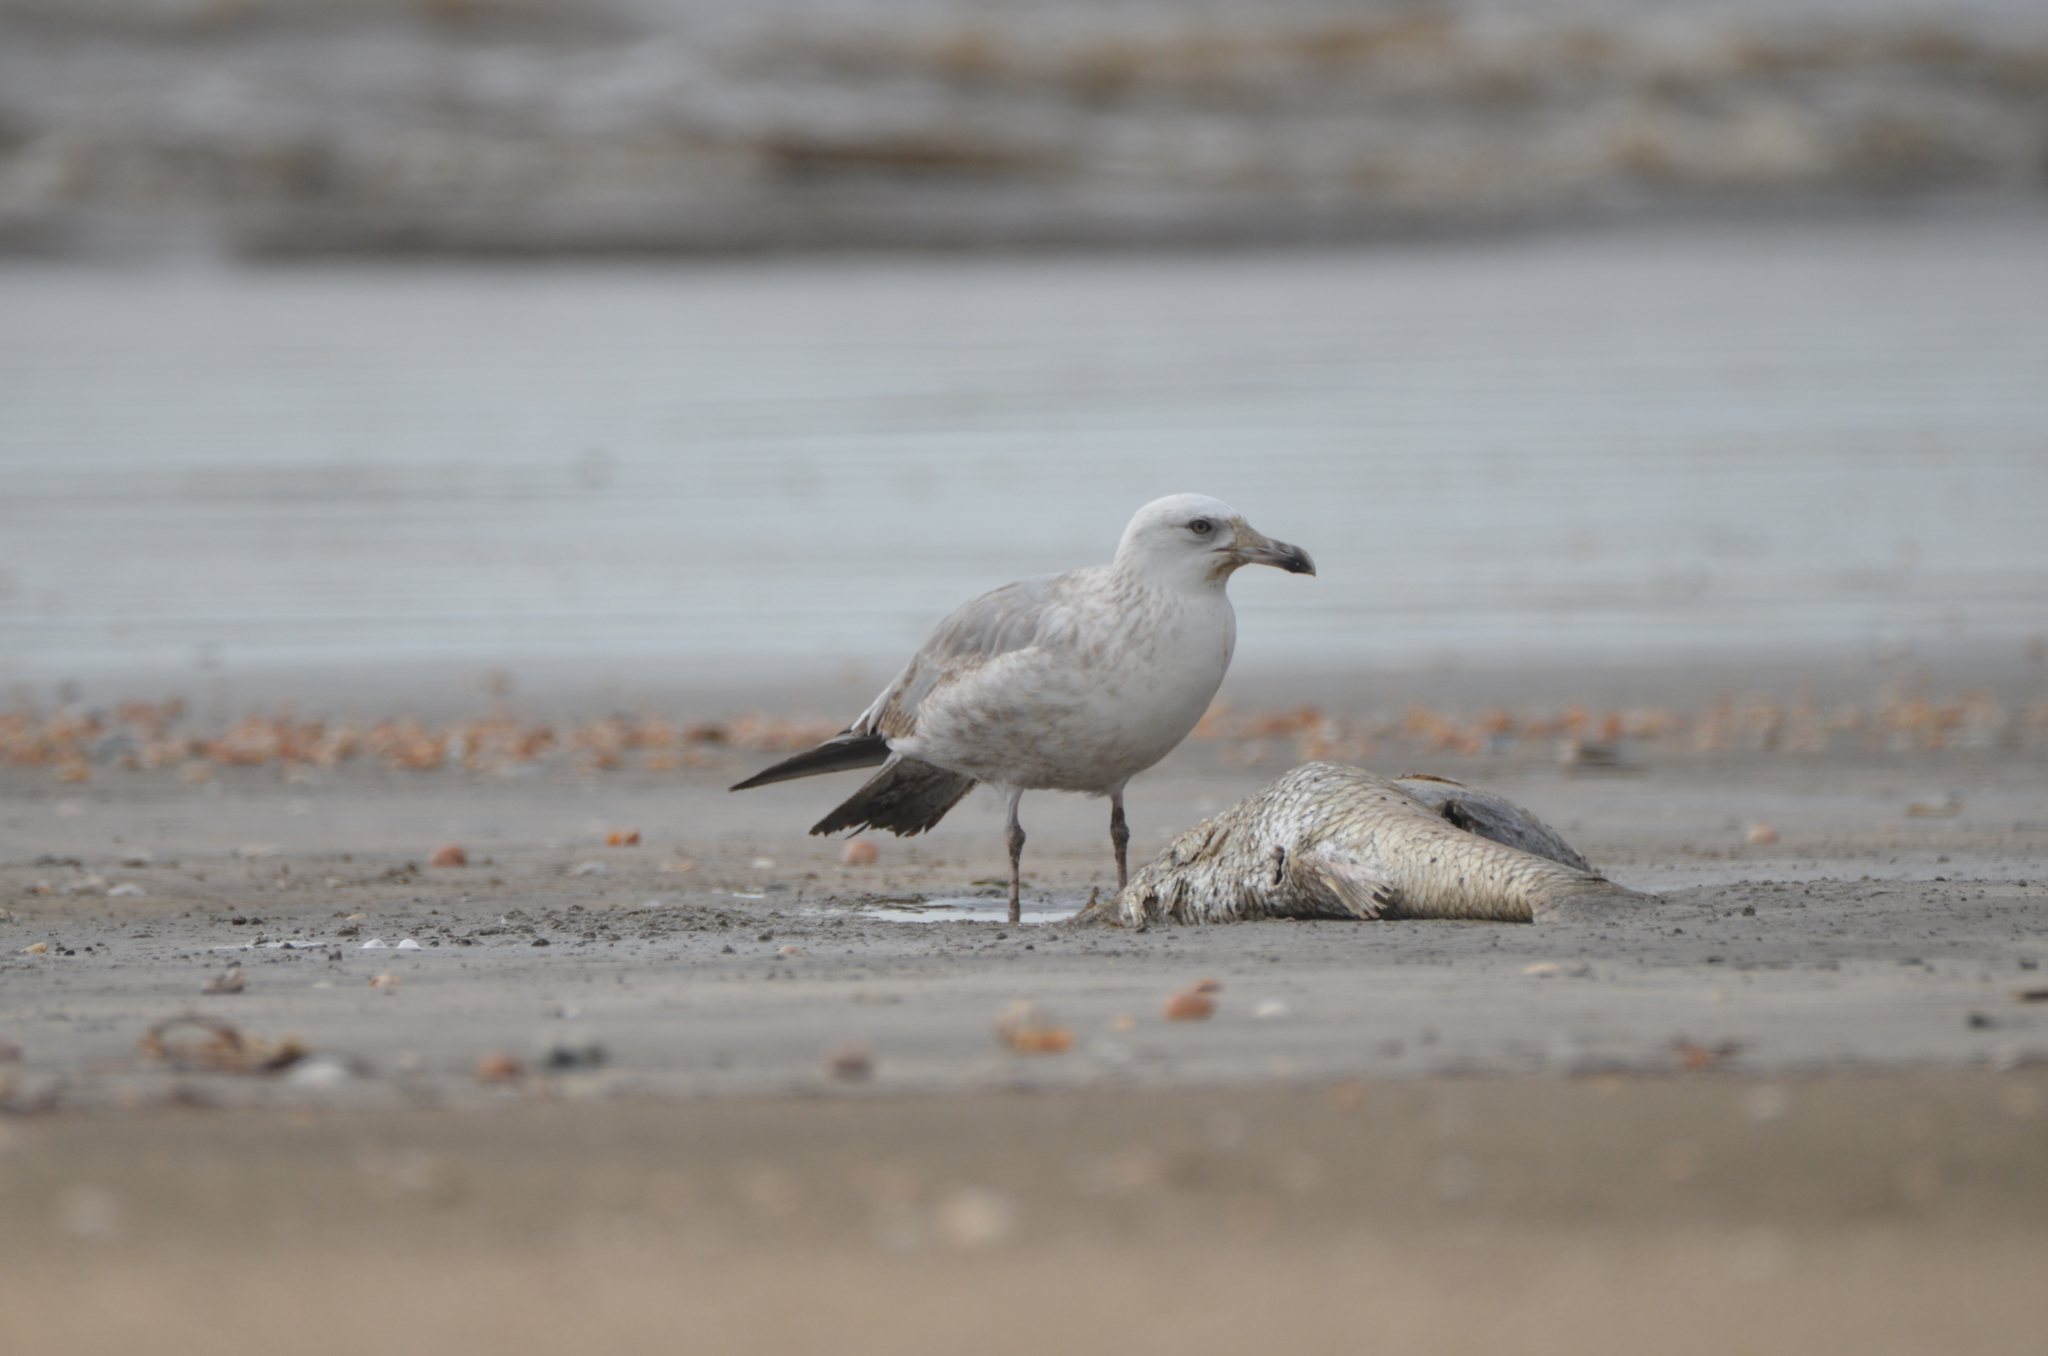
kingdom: Animalia
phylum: Chordata
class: Aves
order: Charadriiformes
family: Laridae
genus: Larus
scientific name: Larus argentatus
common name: Herring gull
